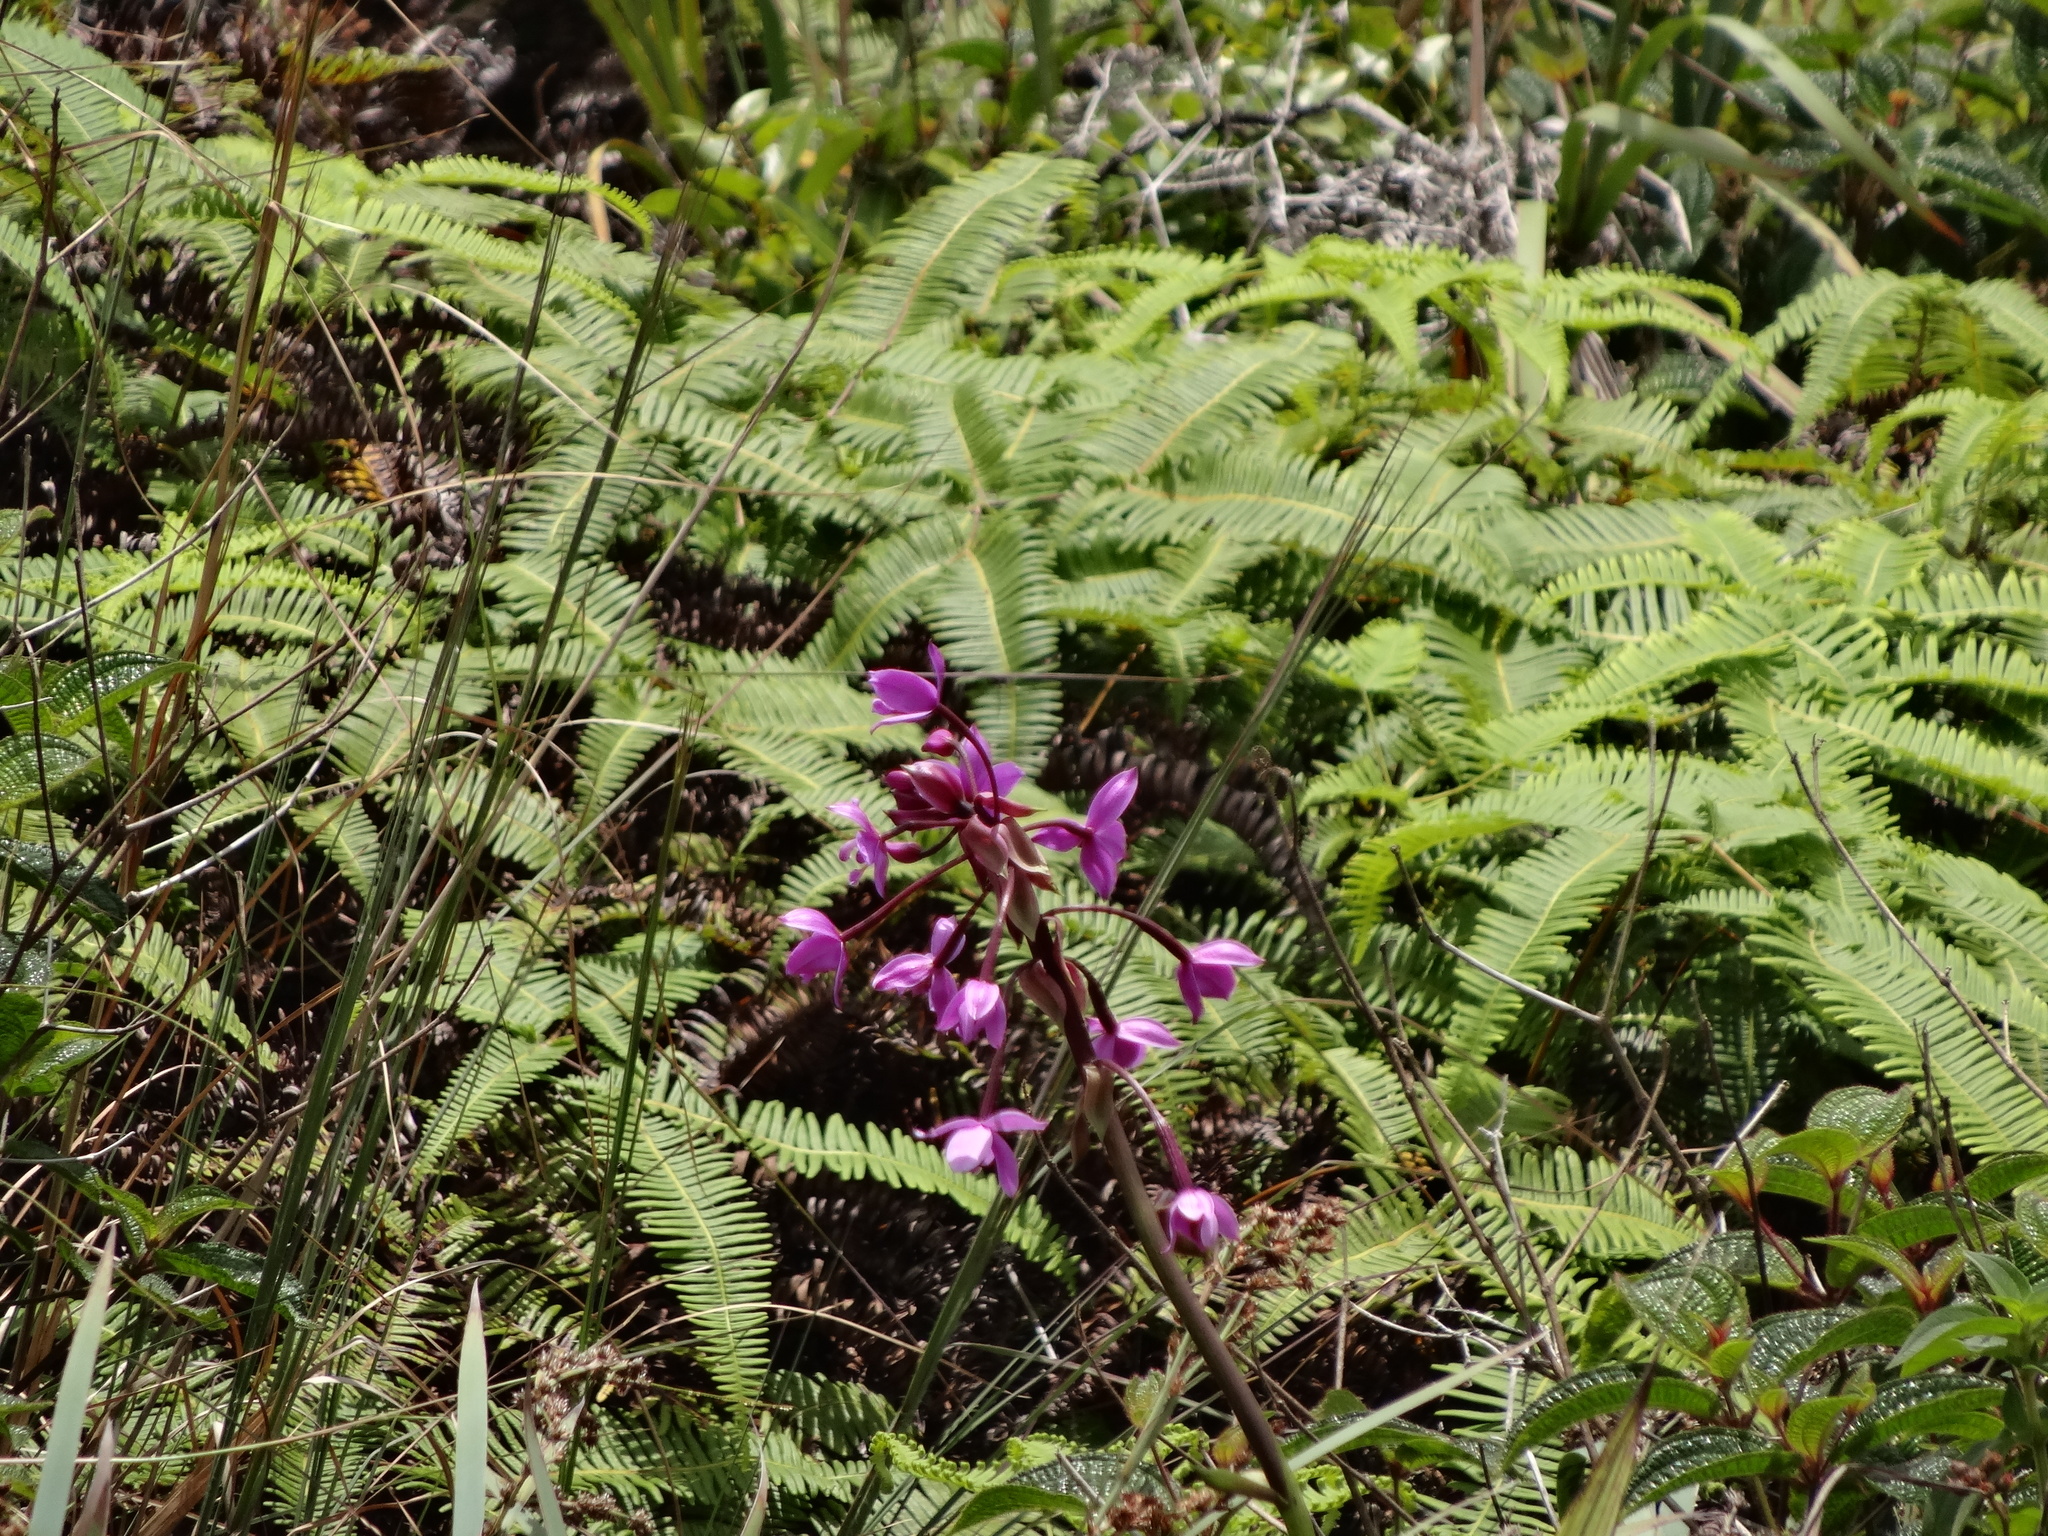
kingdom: Plantae
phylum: Tracheophyta
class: Liliopsida
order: Asparagales
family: Orchidaceae
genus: Spathoglottis
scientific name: Spathoglottis plicata
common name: Philippine ground orchid
